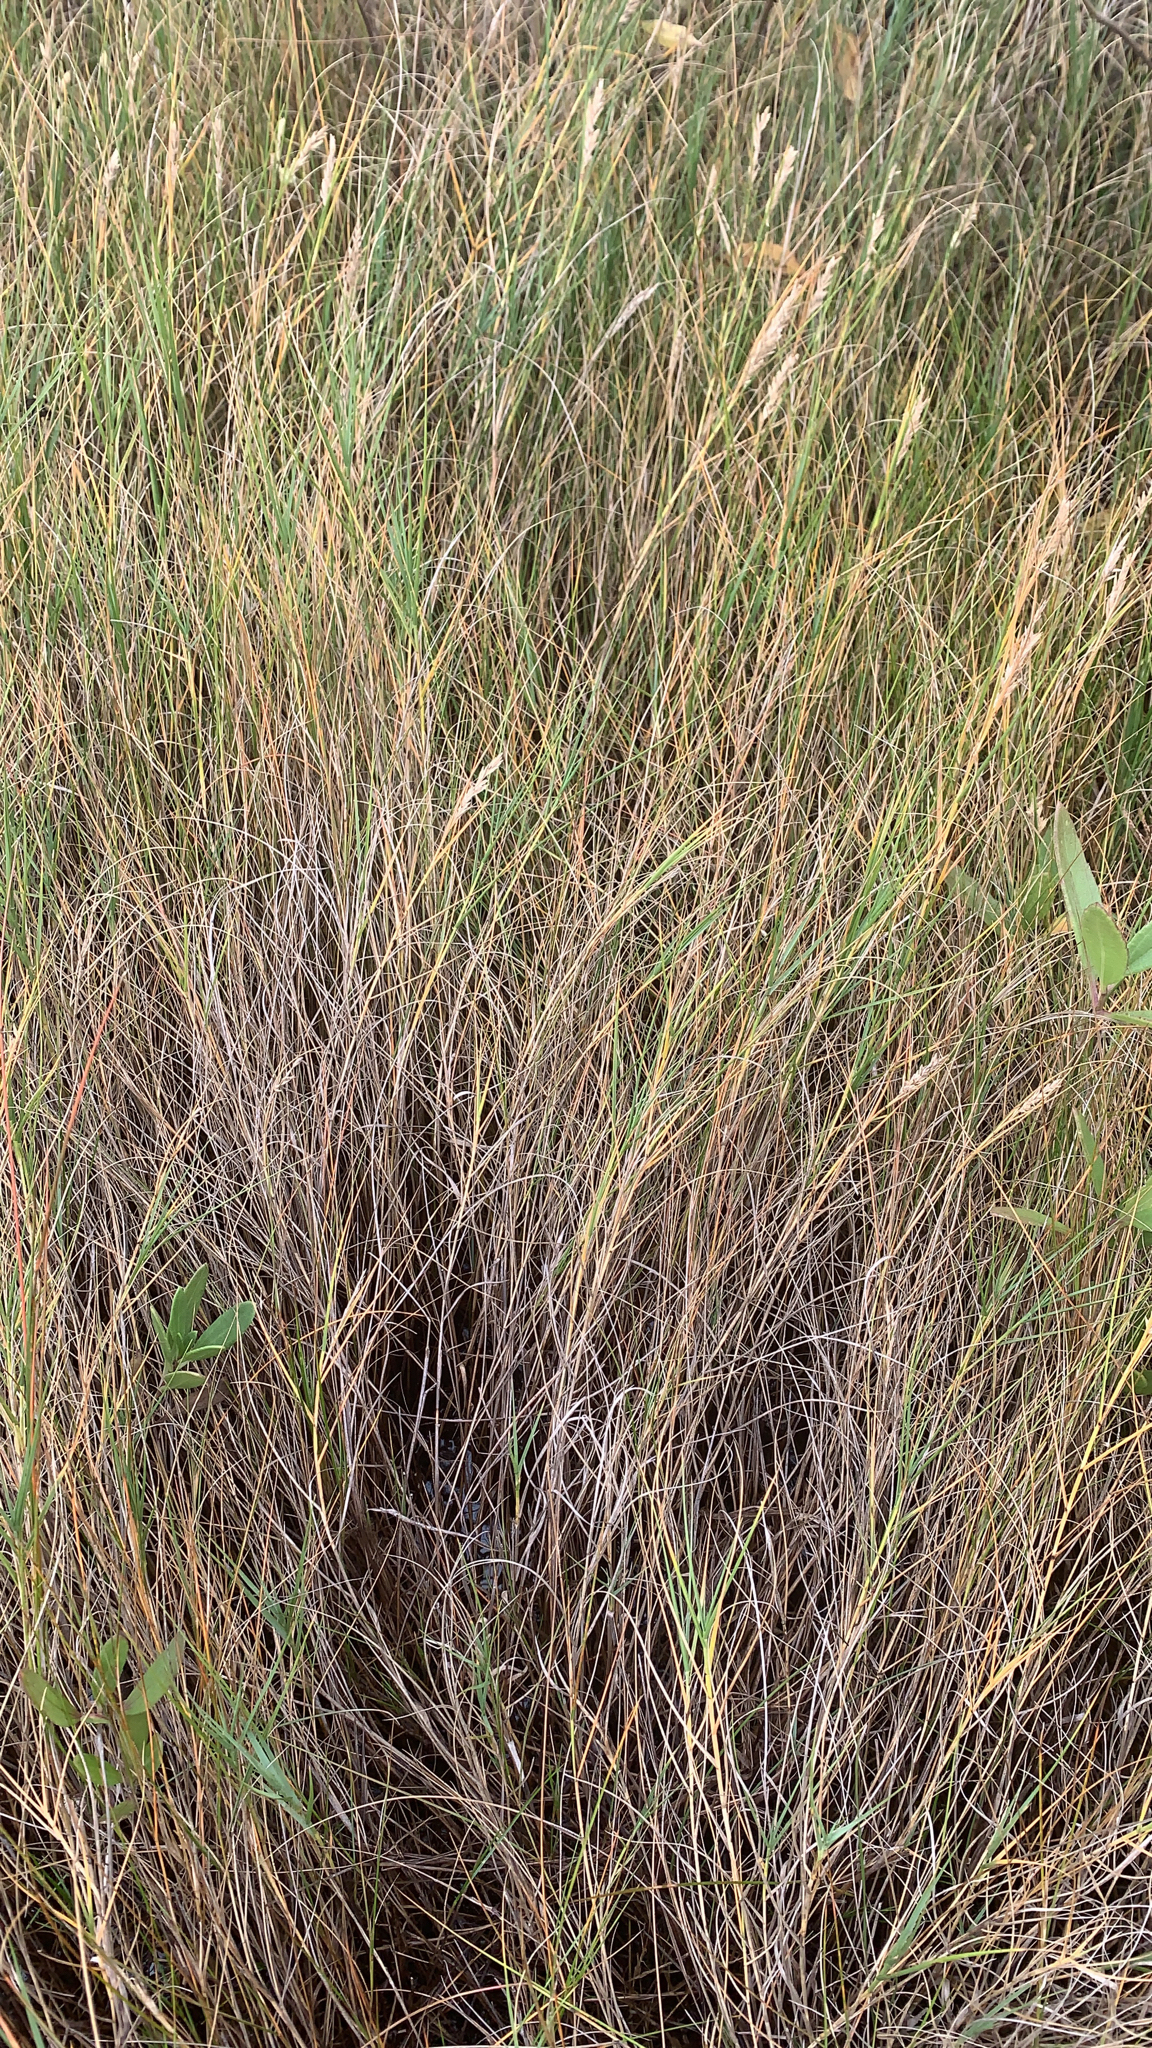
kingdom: Plantae
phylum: Tracheophyta
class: Liliopsida
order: Poales
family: Poaceae
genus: Distichlis
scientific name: Distichlis spicata
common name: Saltgrass
